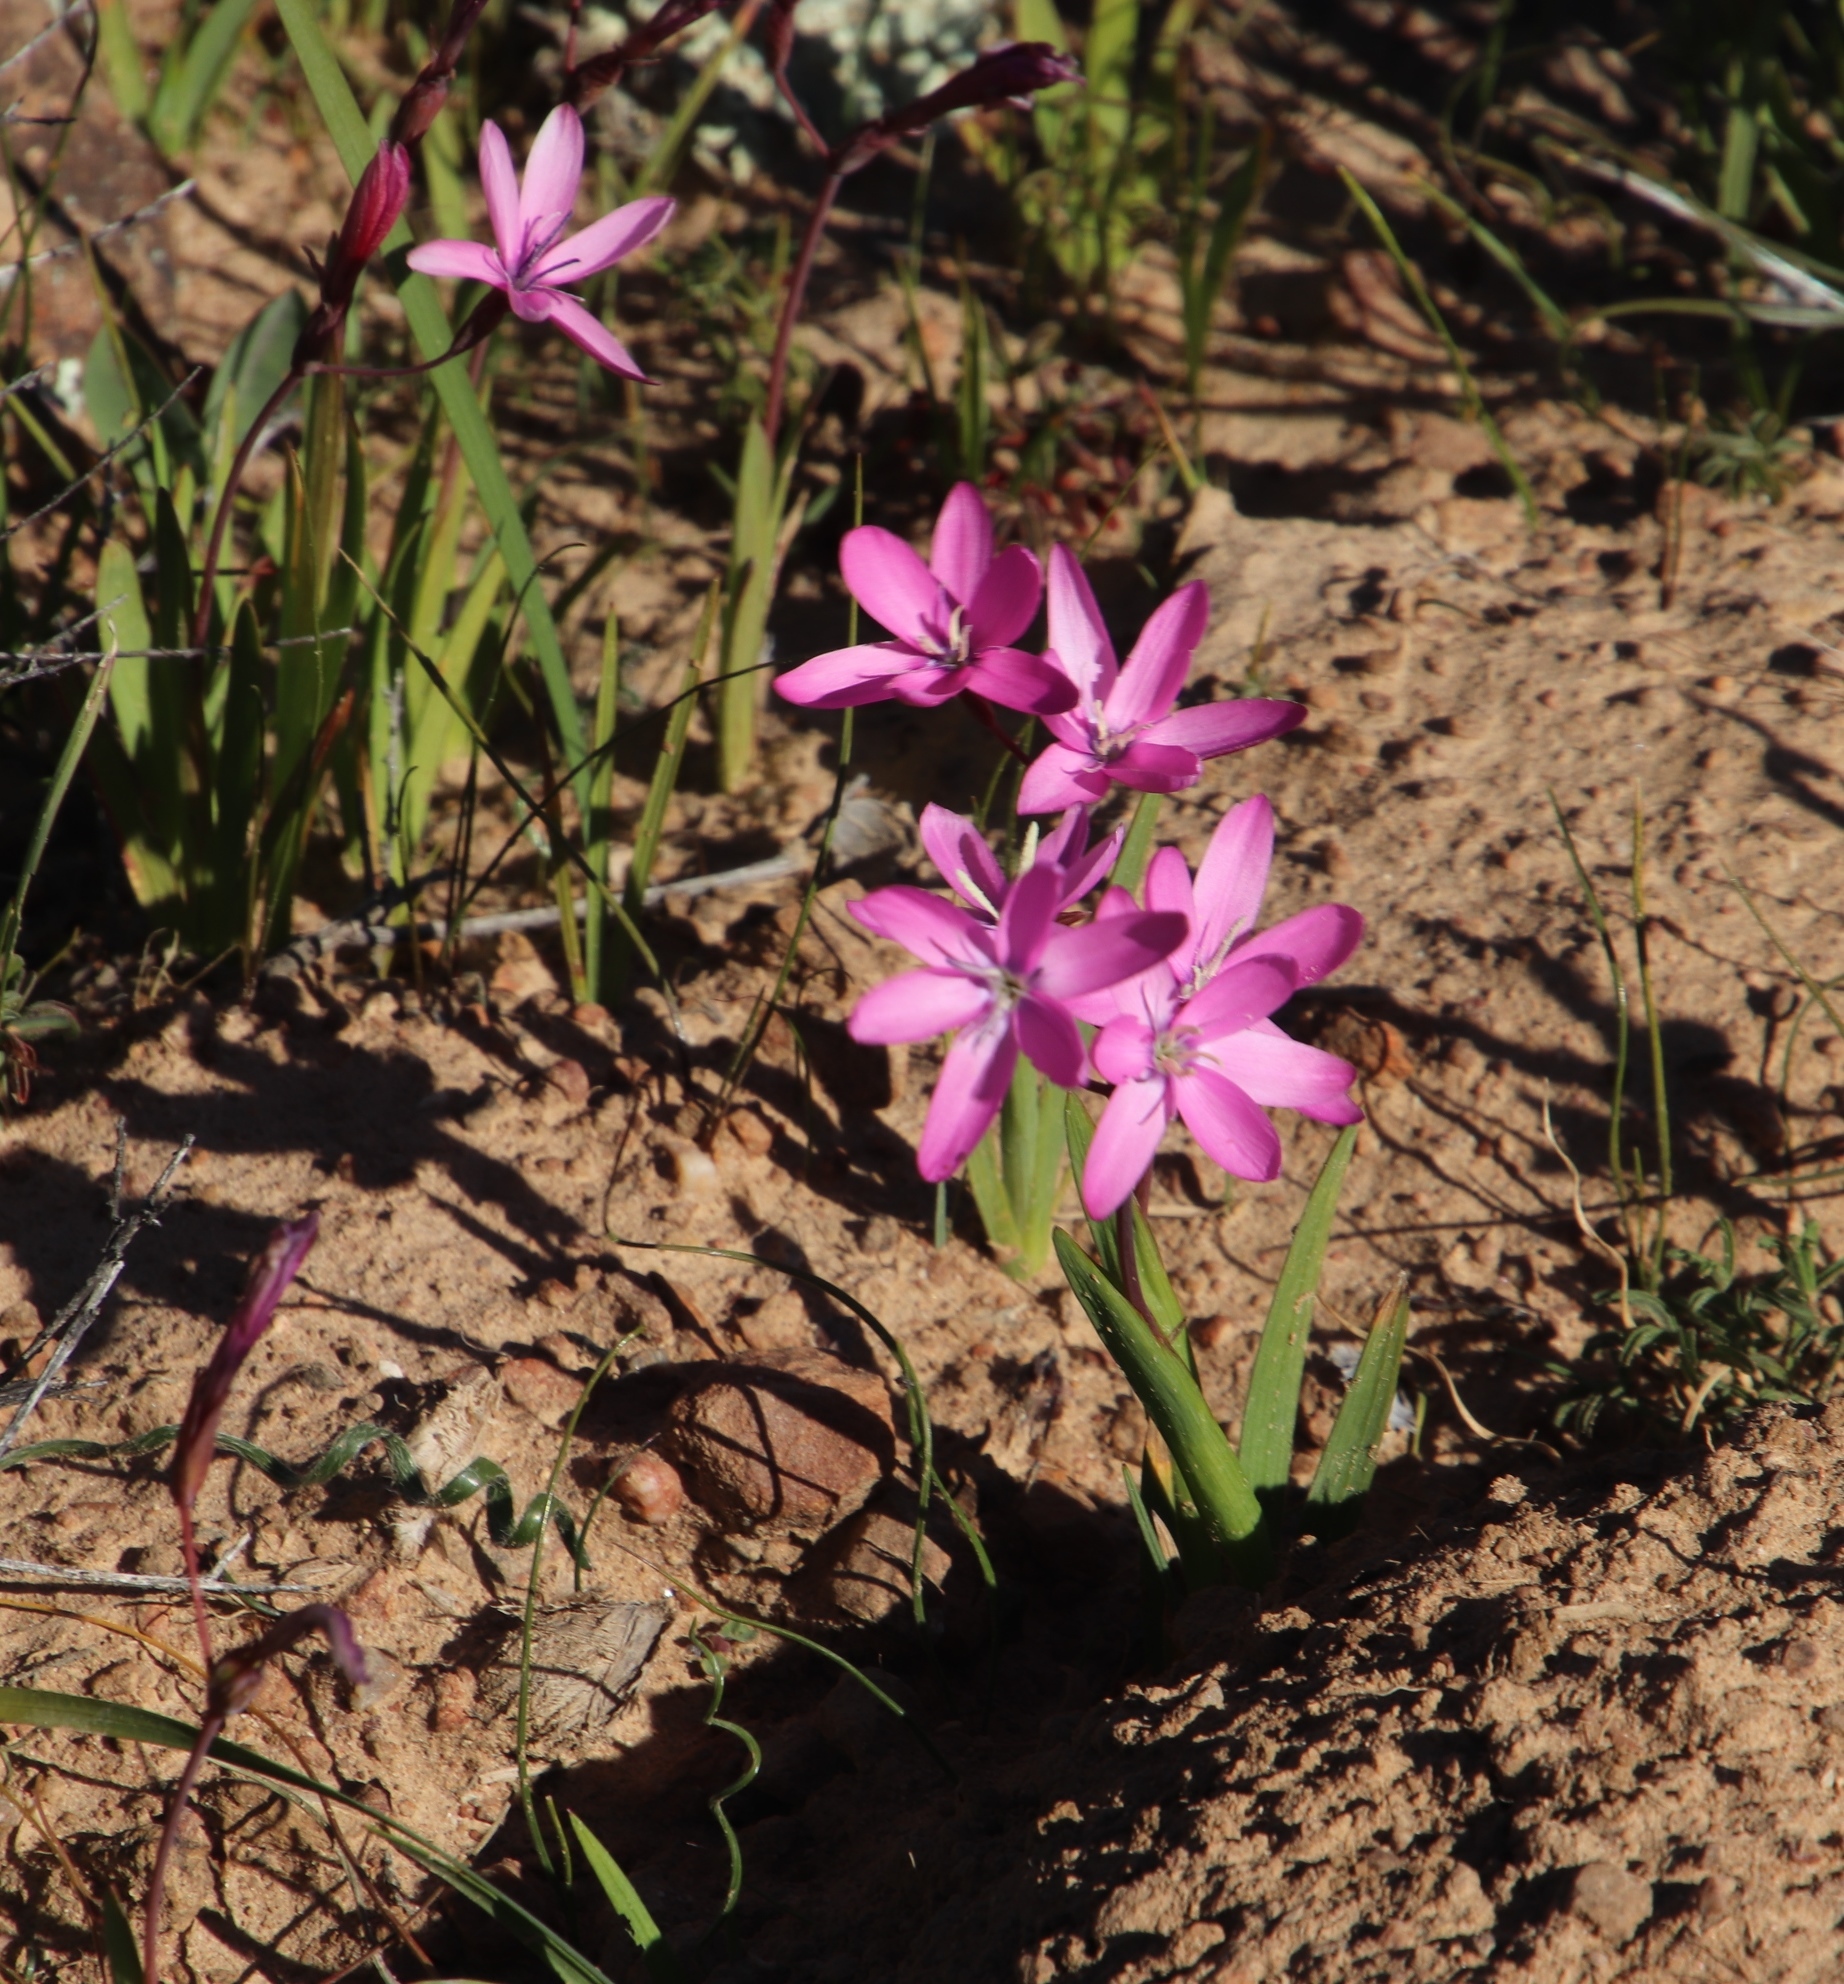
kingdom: Plantae
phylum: Tracheophyta
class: Liliopsida
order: Asparagales
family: Iridaceae
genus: Hesperantha
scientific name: Hesperantha pauciflora
